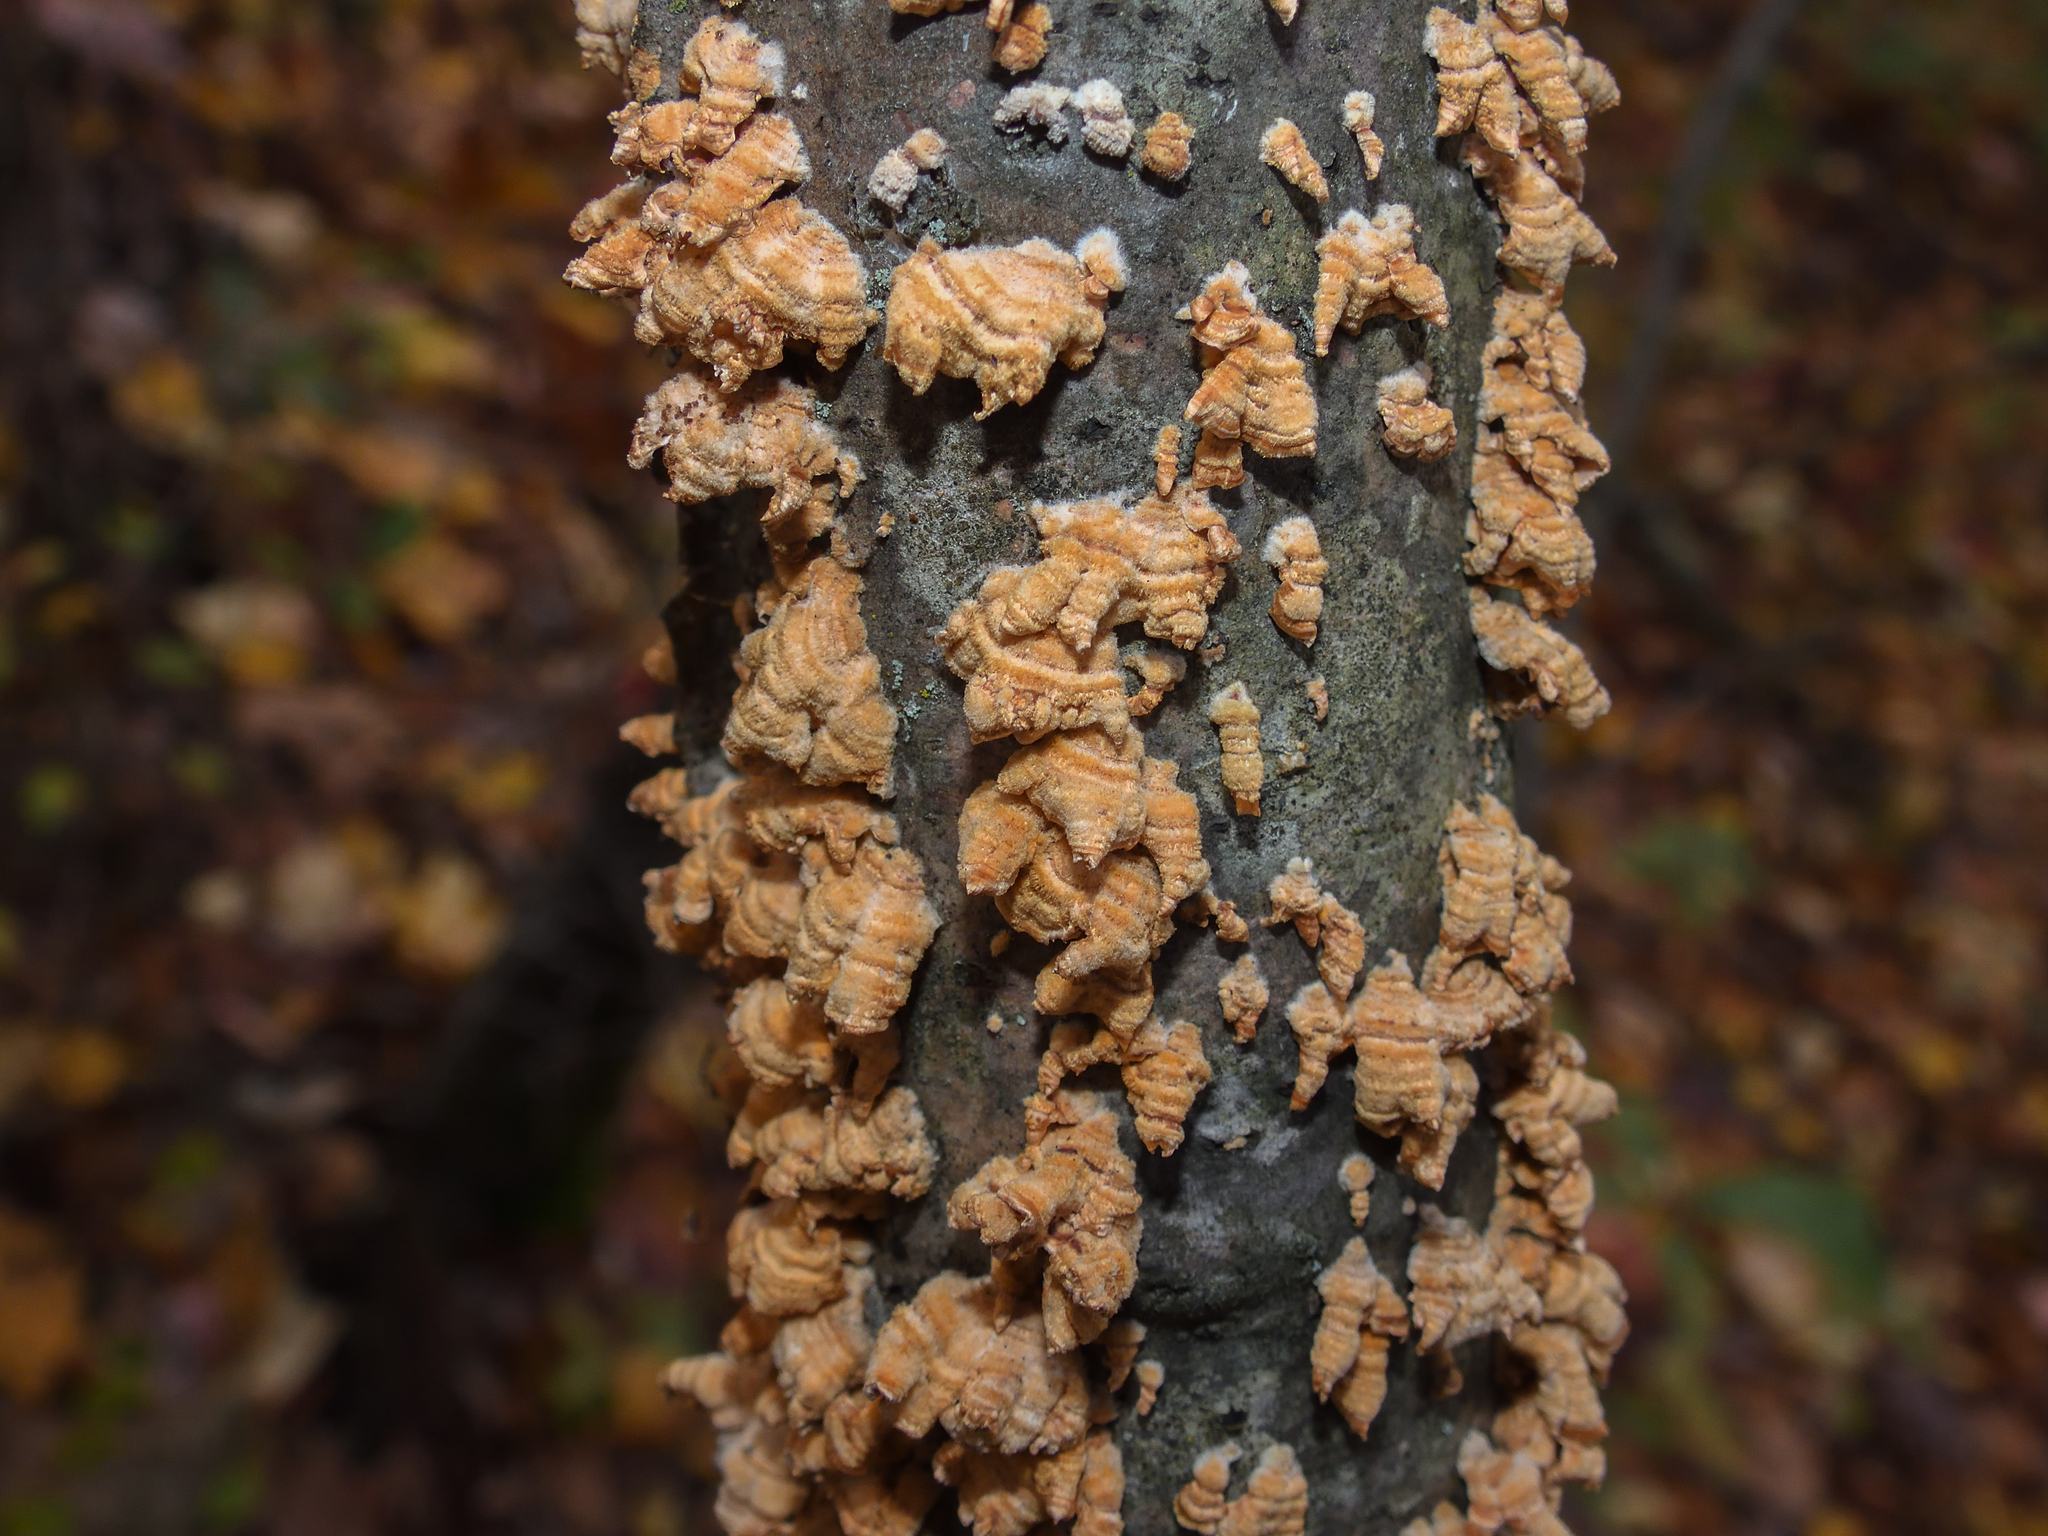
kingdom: Fungi
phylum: Basidiomycota
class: Agaricomycetes
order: Russulales
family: Stereaceae
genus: Stereum
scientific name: Stereum complicatum
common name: Crowded parchment
